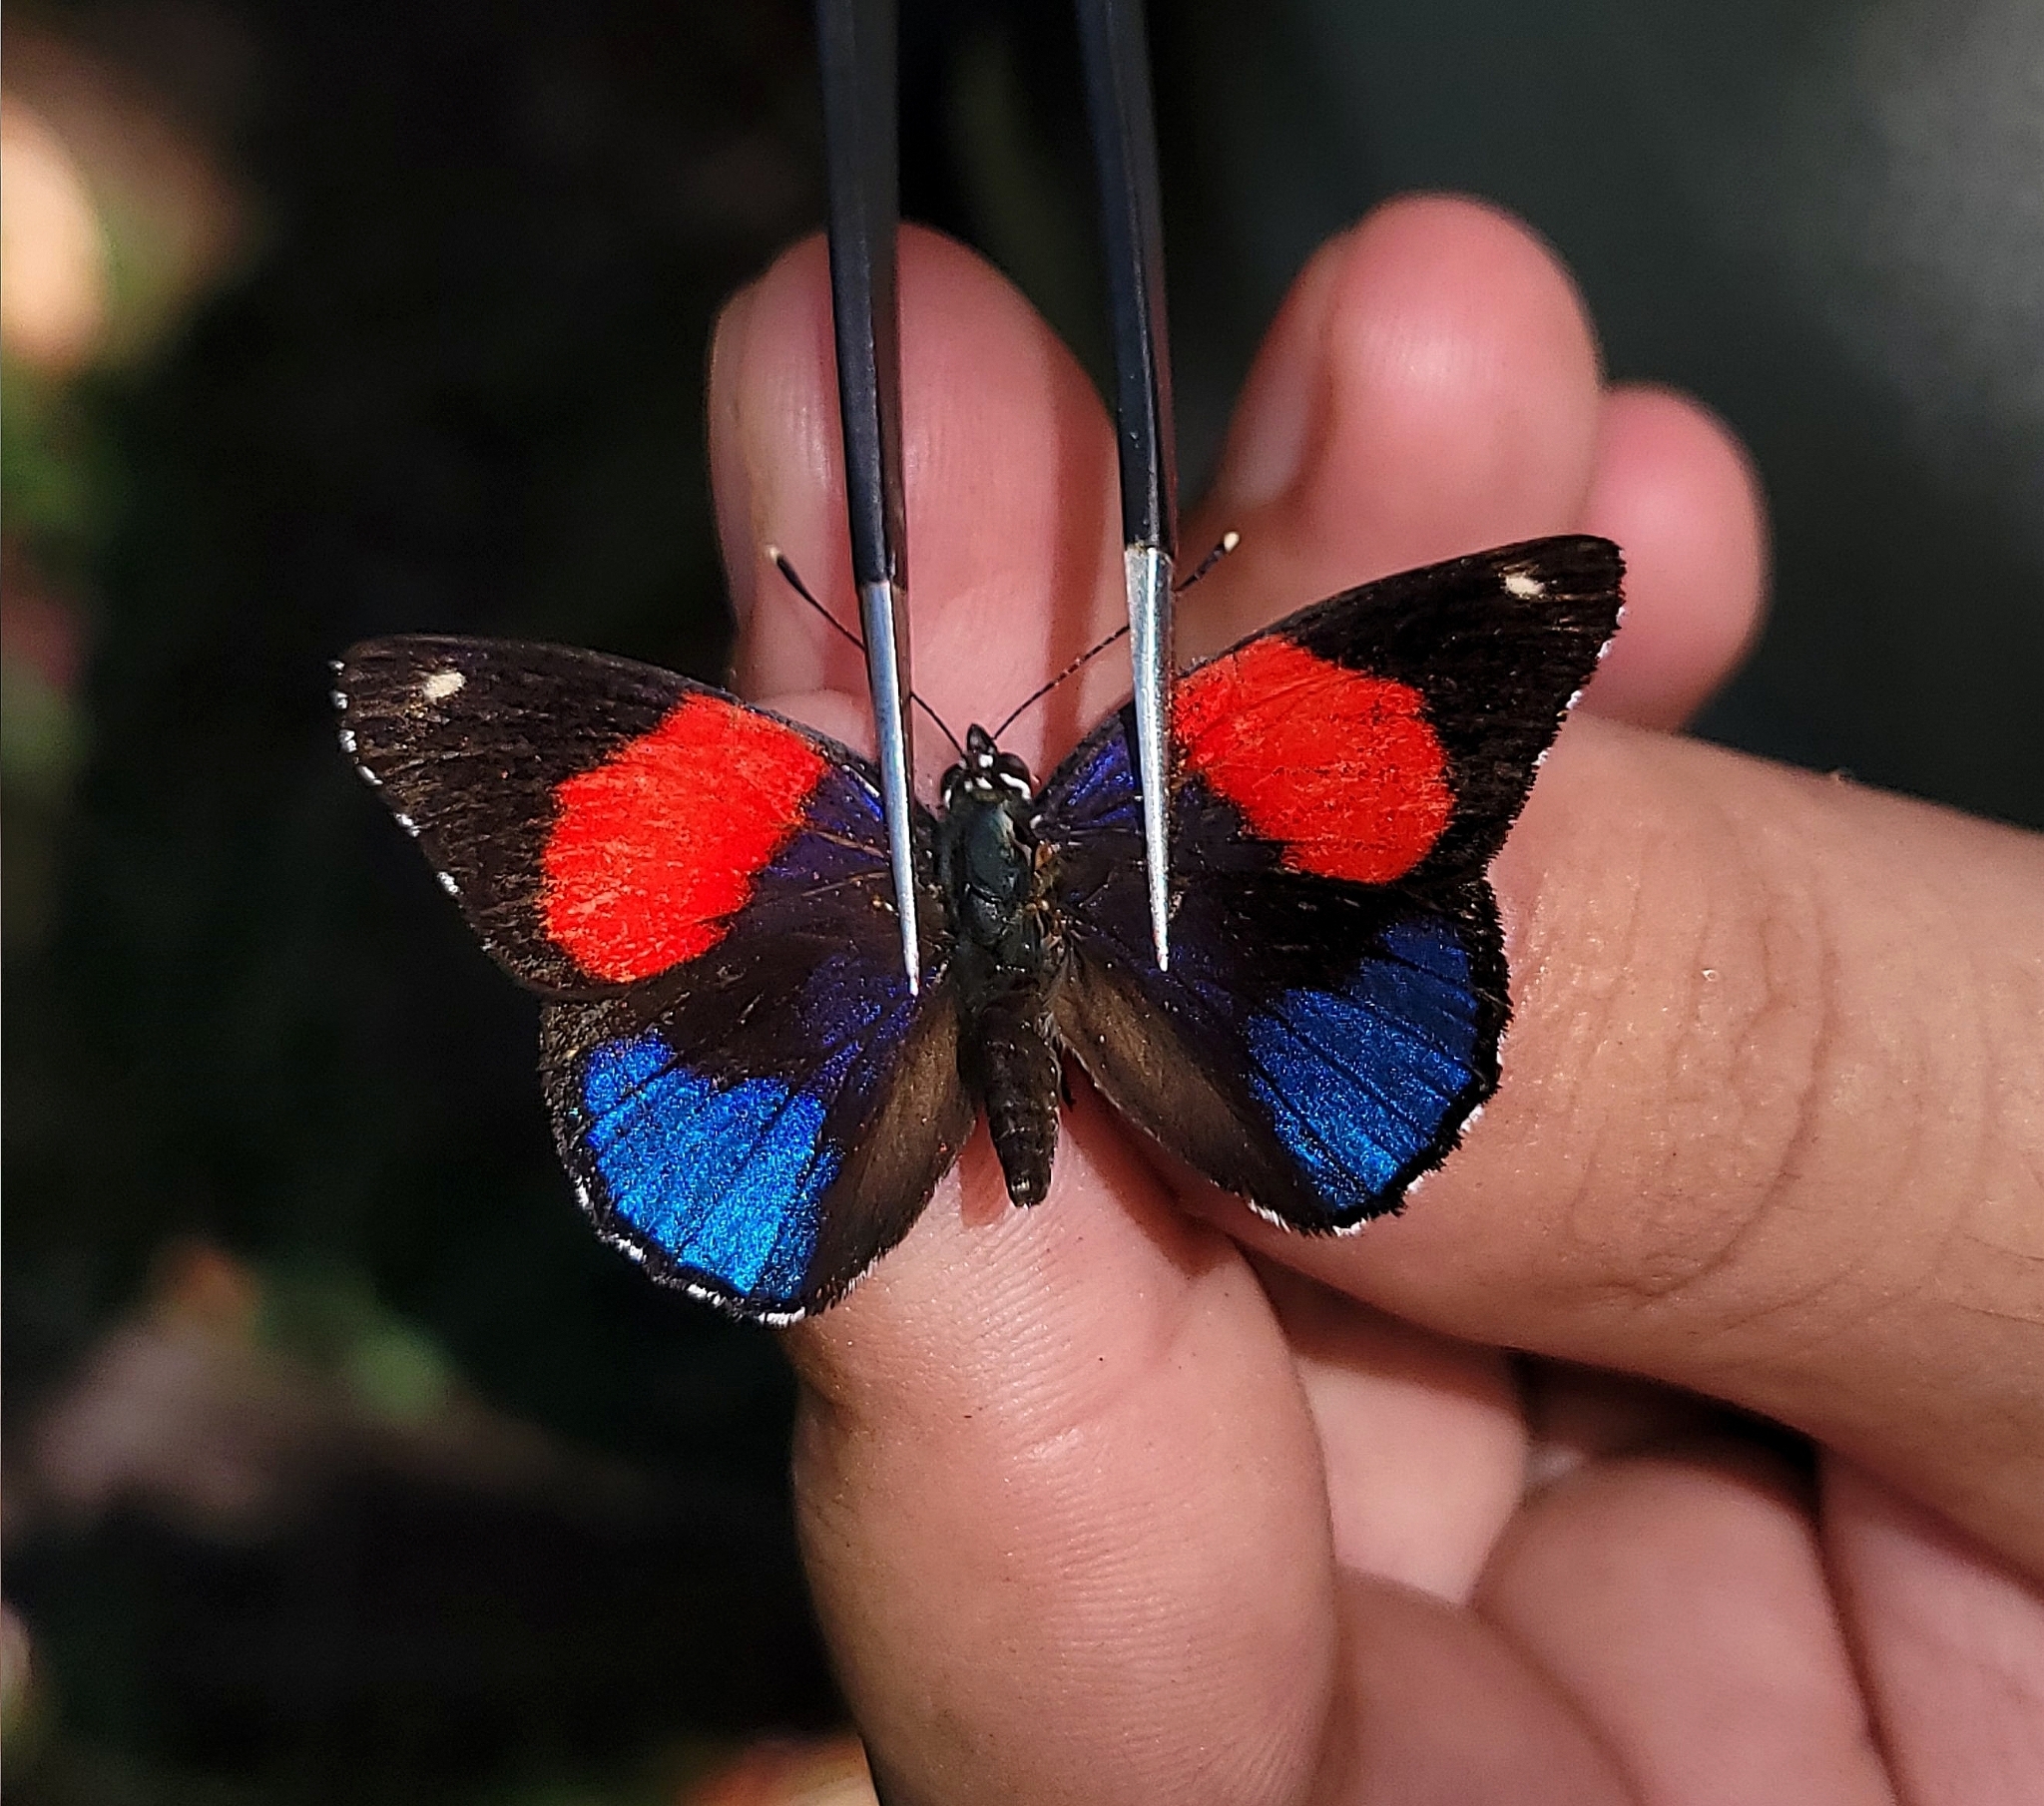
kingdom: Animalia
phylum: Arthropoda
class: Insecta
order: Lepidoptera
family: Nymphalidae
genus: Catagramma
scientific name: Catagramma hystaspes
